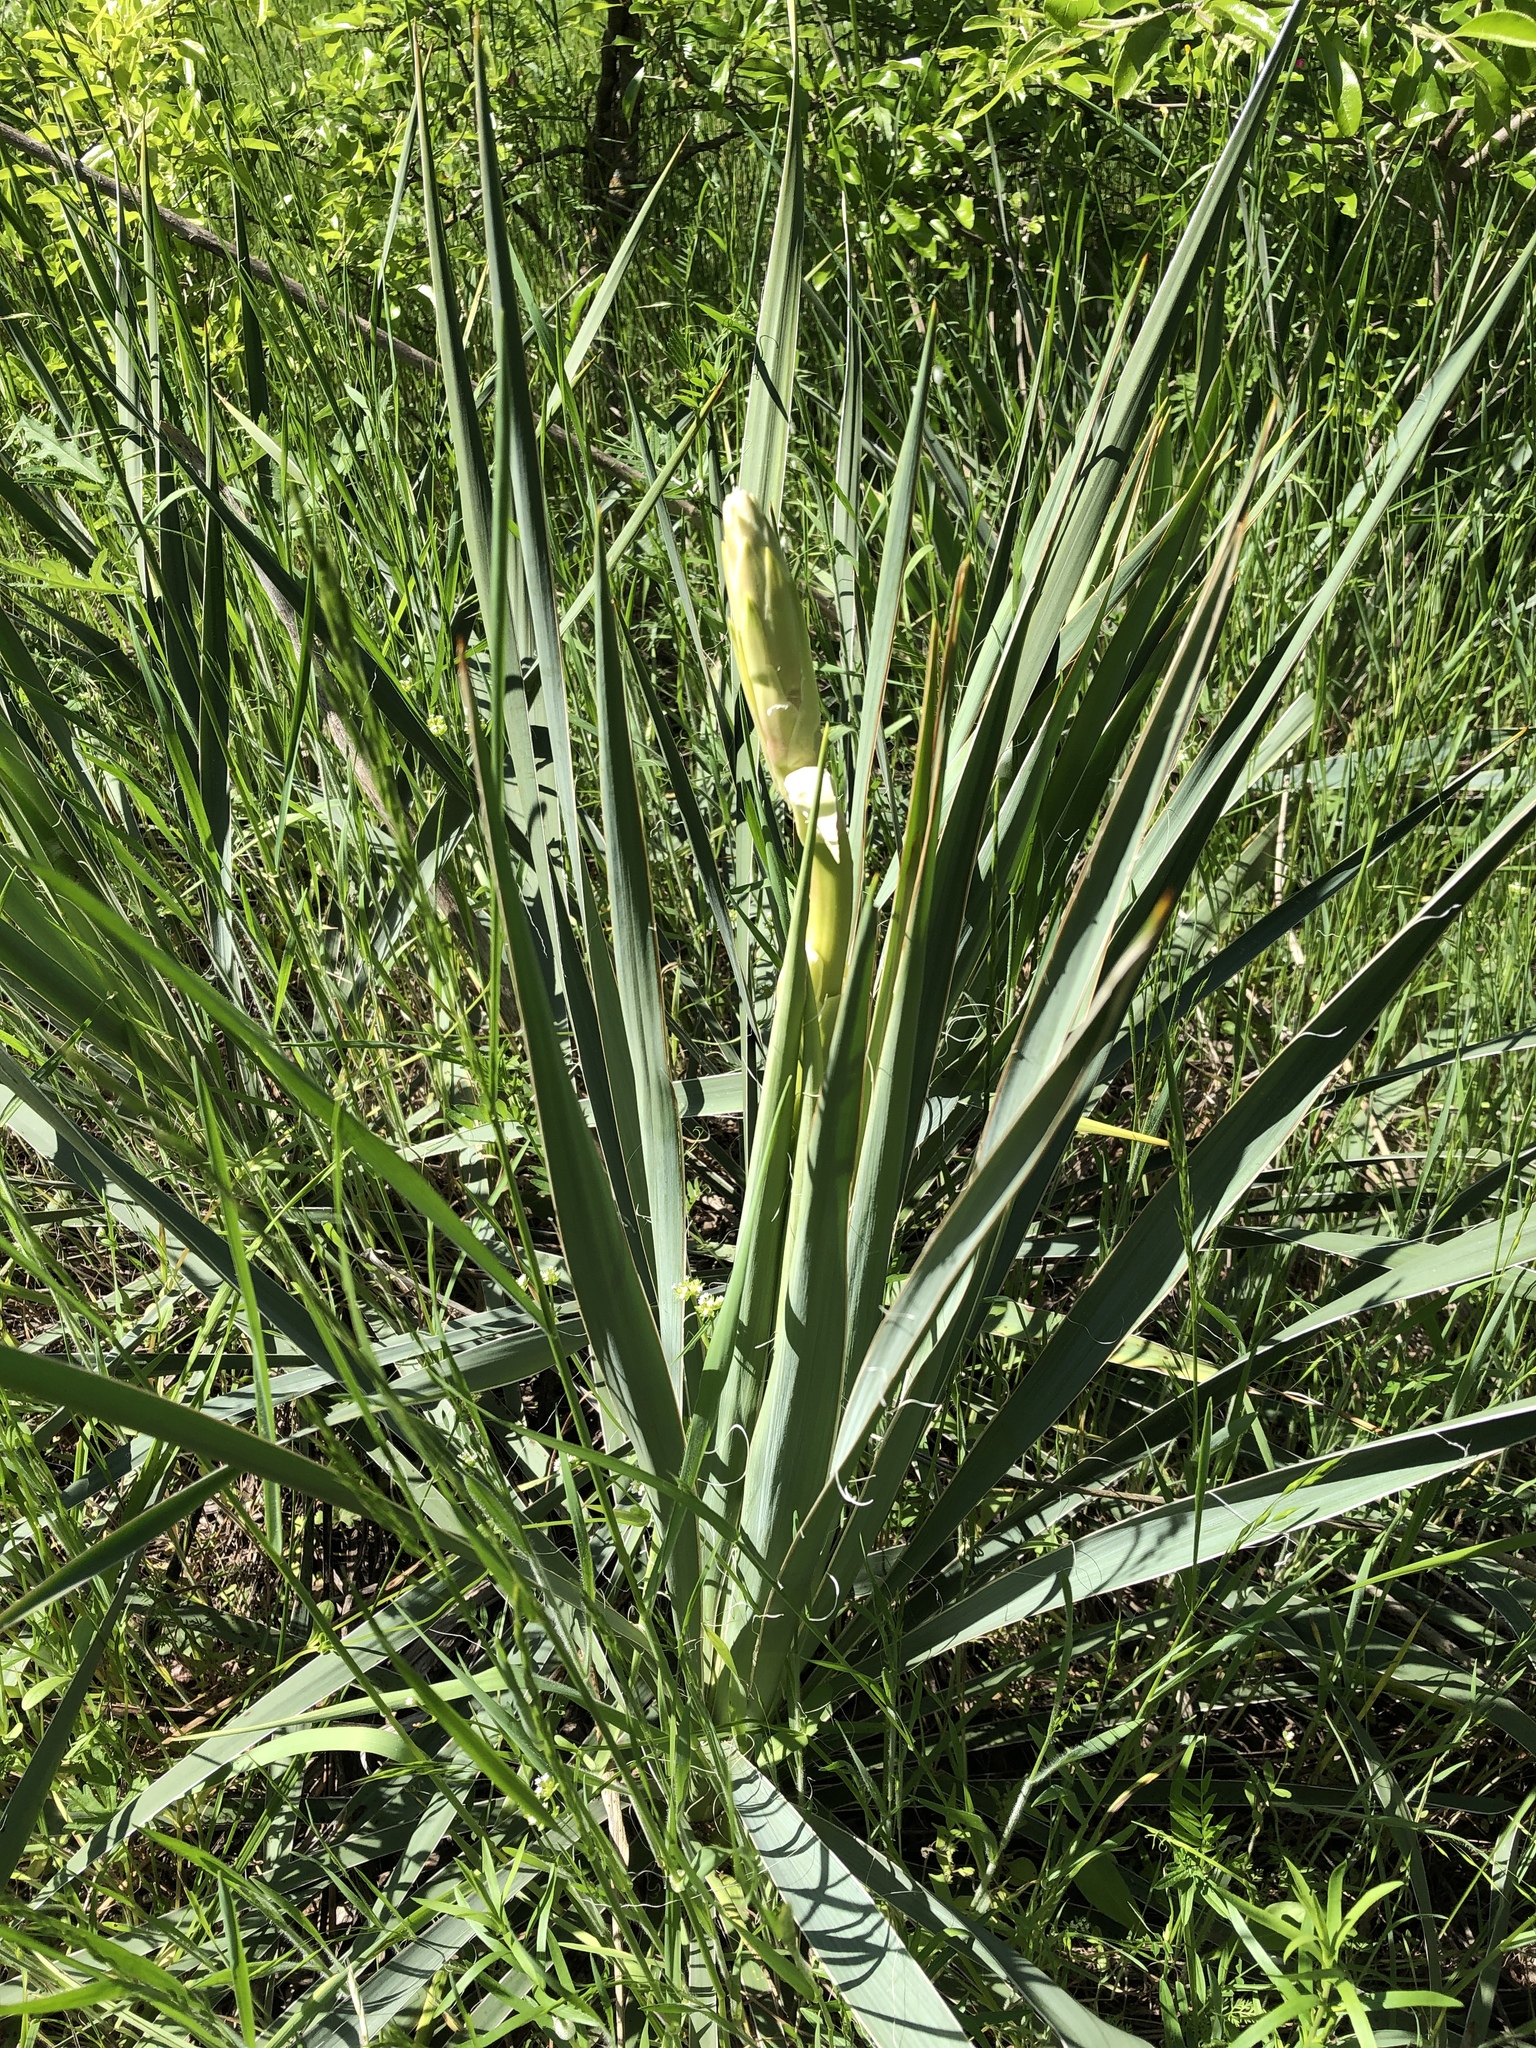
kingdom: Plantae
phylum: Tracheophyta
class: Liliopsida
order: Asparagales
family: Asparagaceae
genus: Yucca
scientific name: Yucca arkansana
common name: Arkansas yucca
